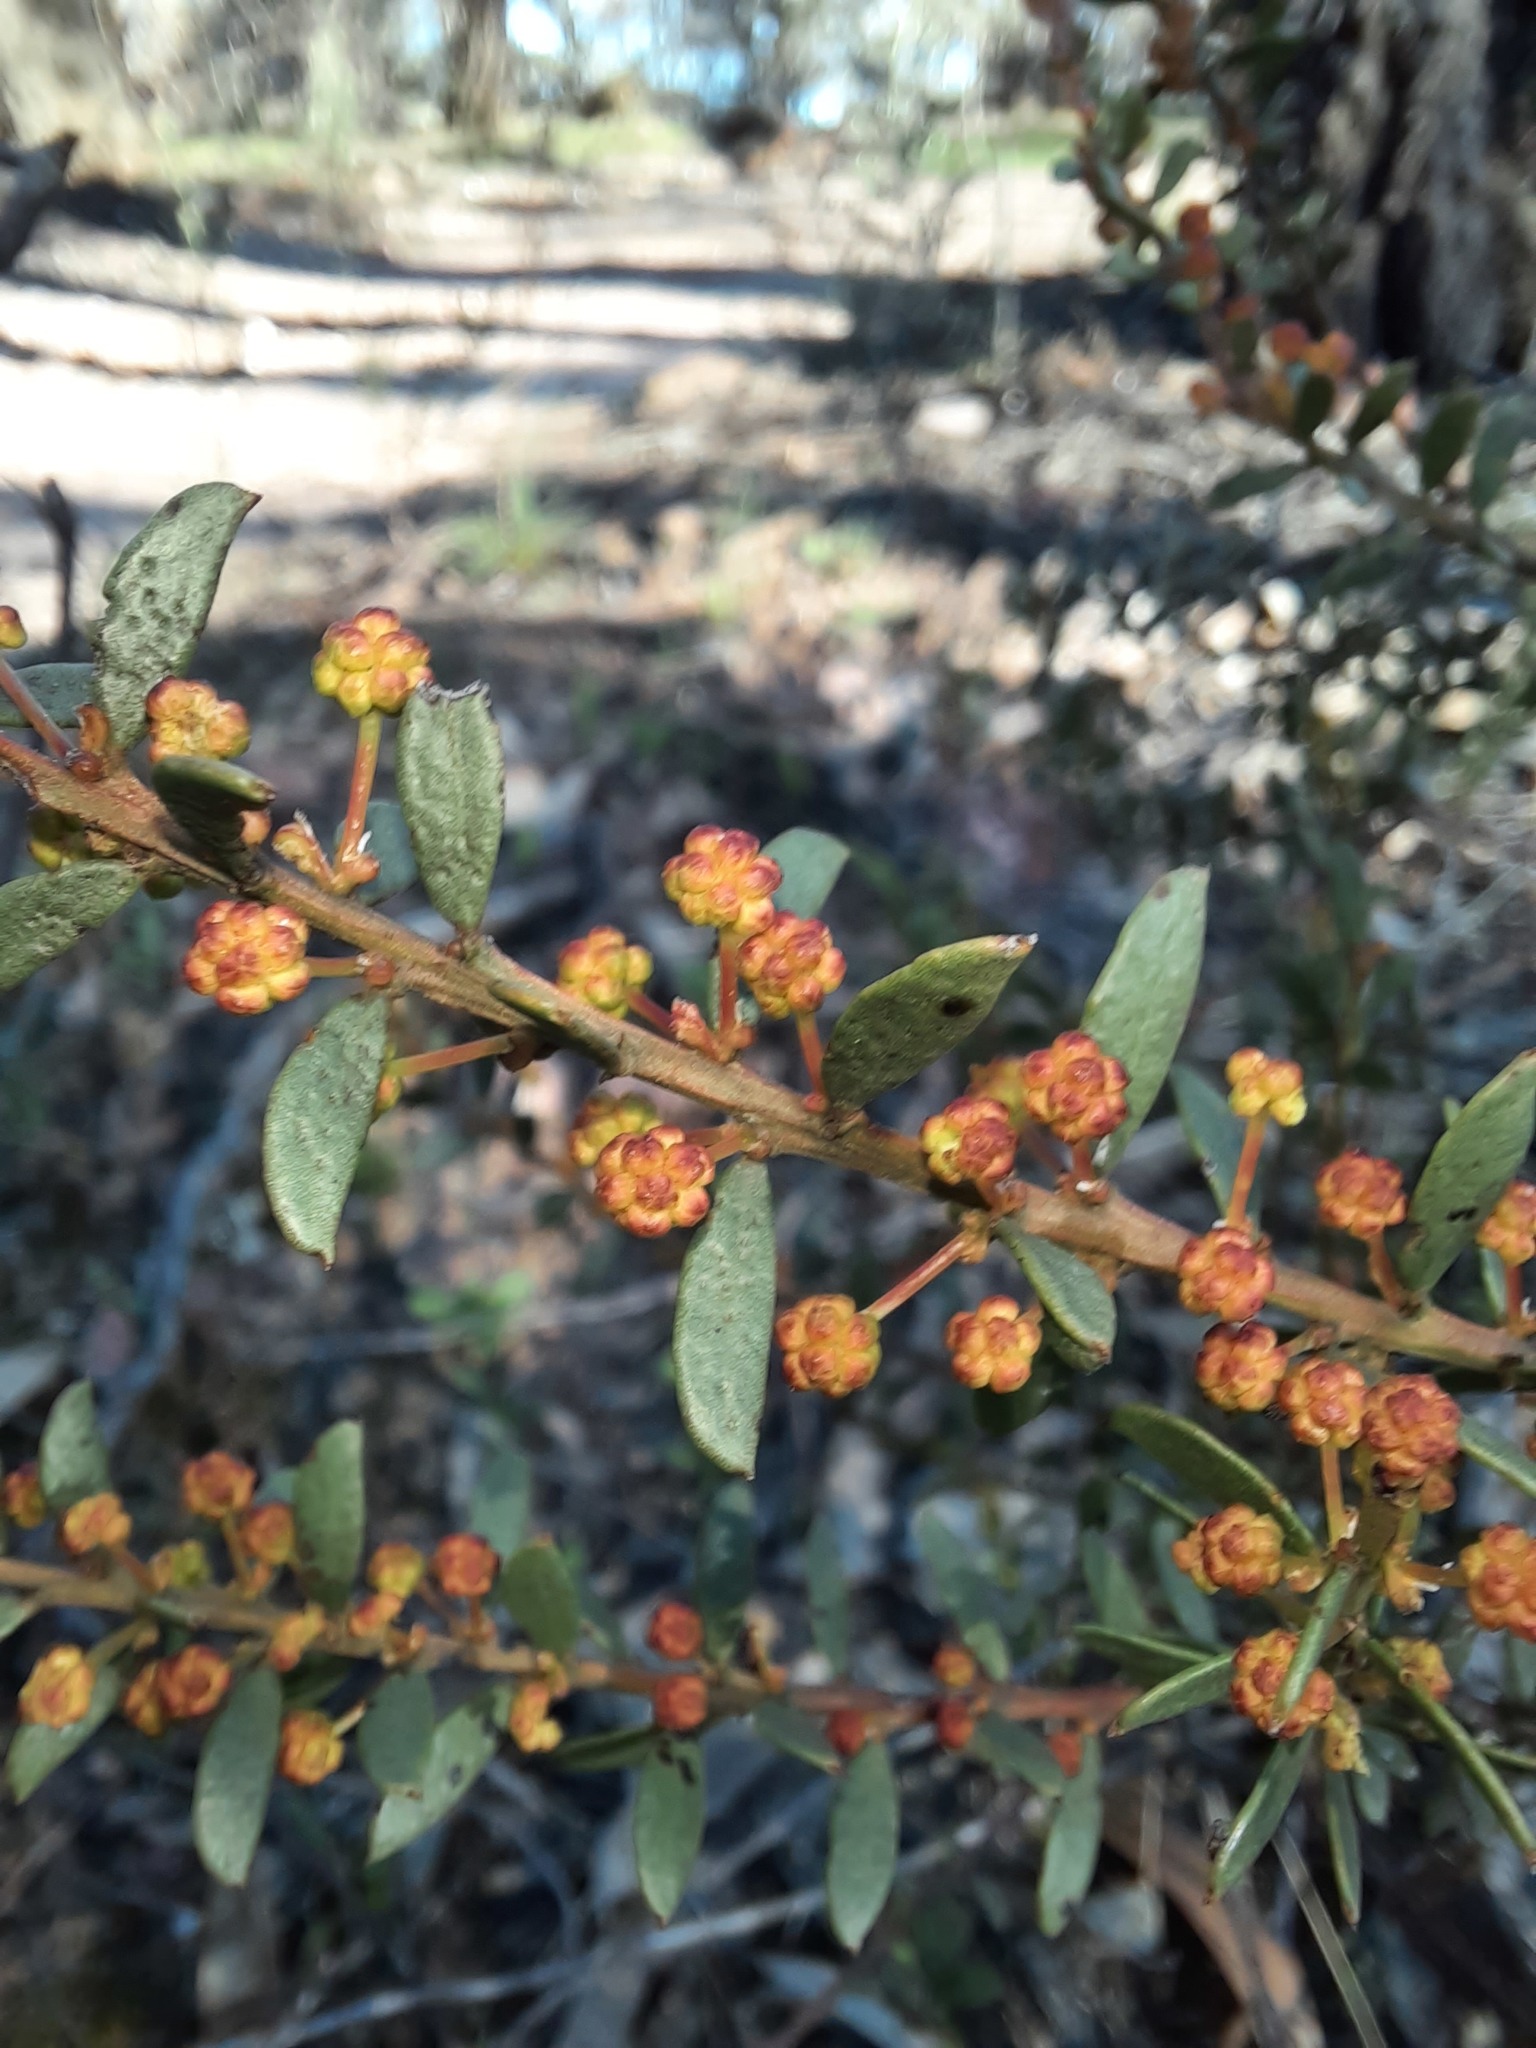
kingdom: Plantae
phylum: Tracheophyta
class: Magnoliopsida
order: Fabales
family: Fabaceae
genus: Acacia
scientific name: Acacia acinacea
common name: Gold-dust acacia
